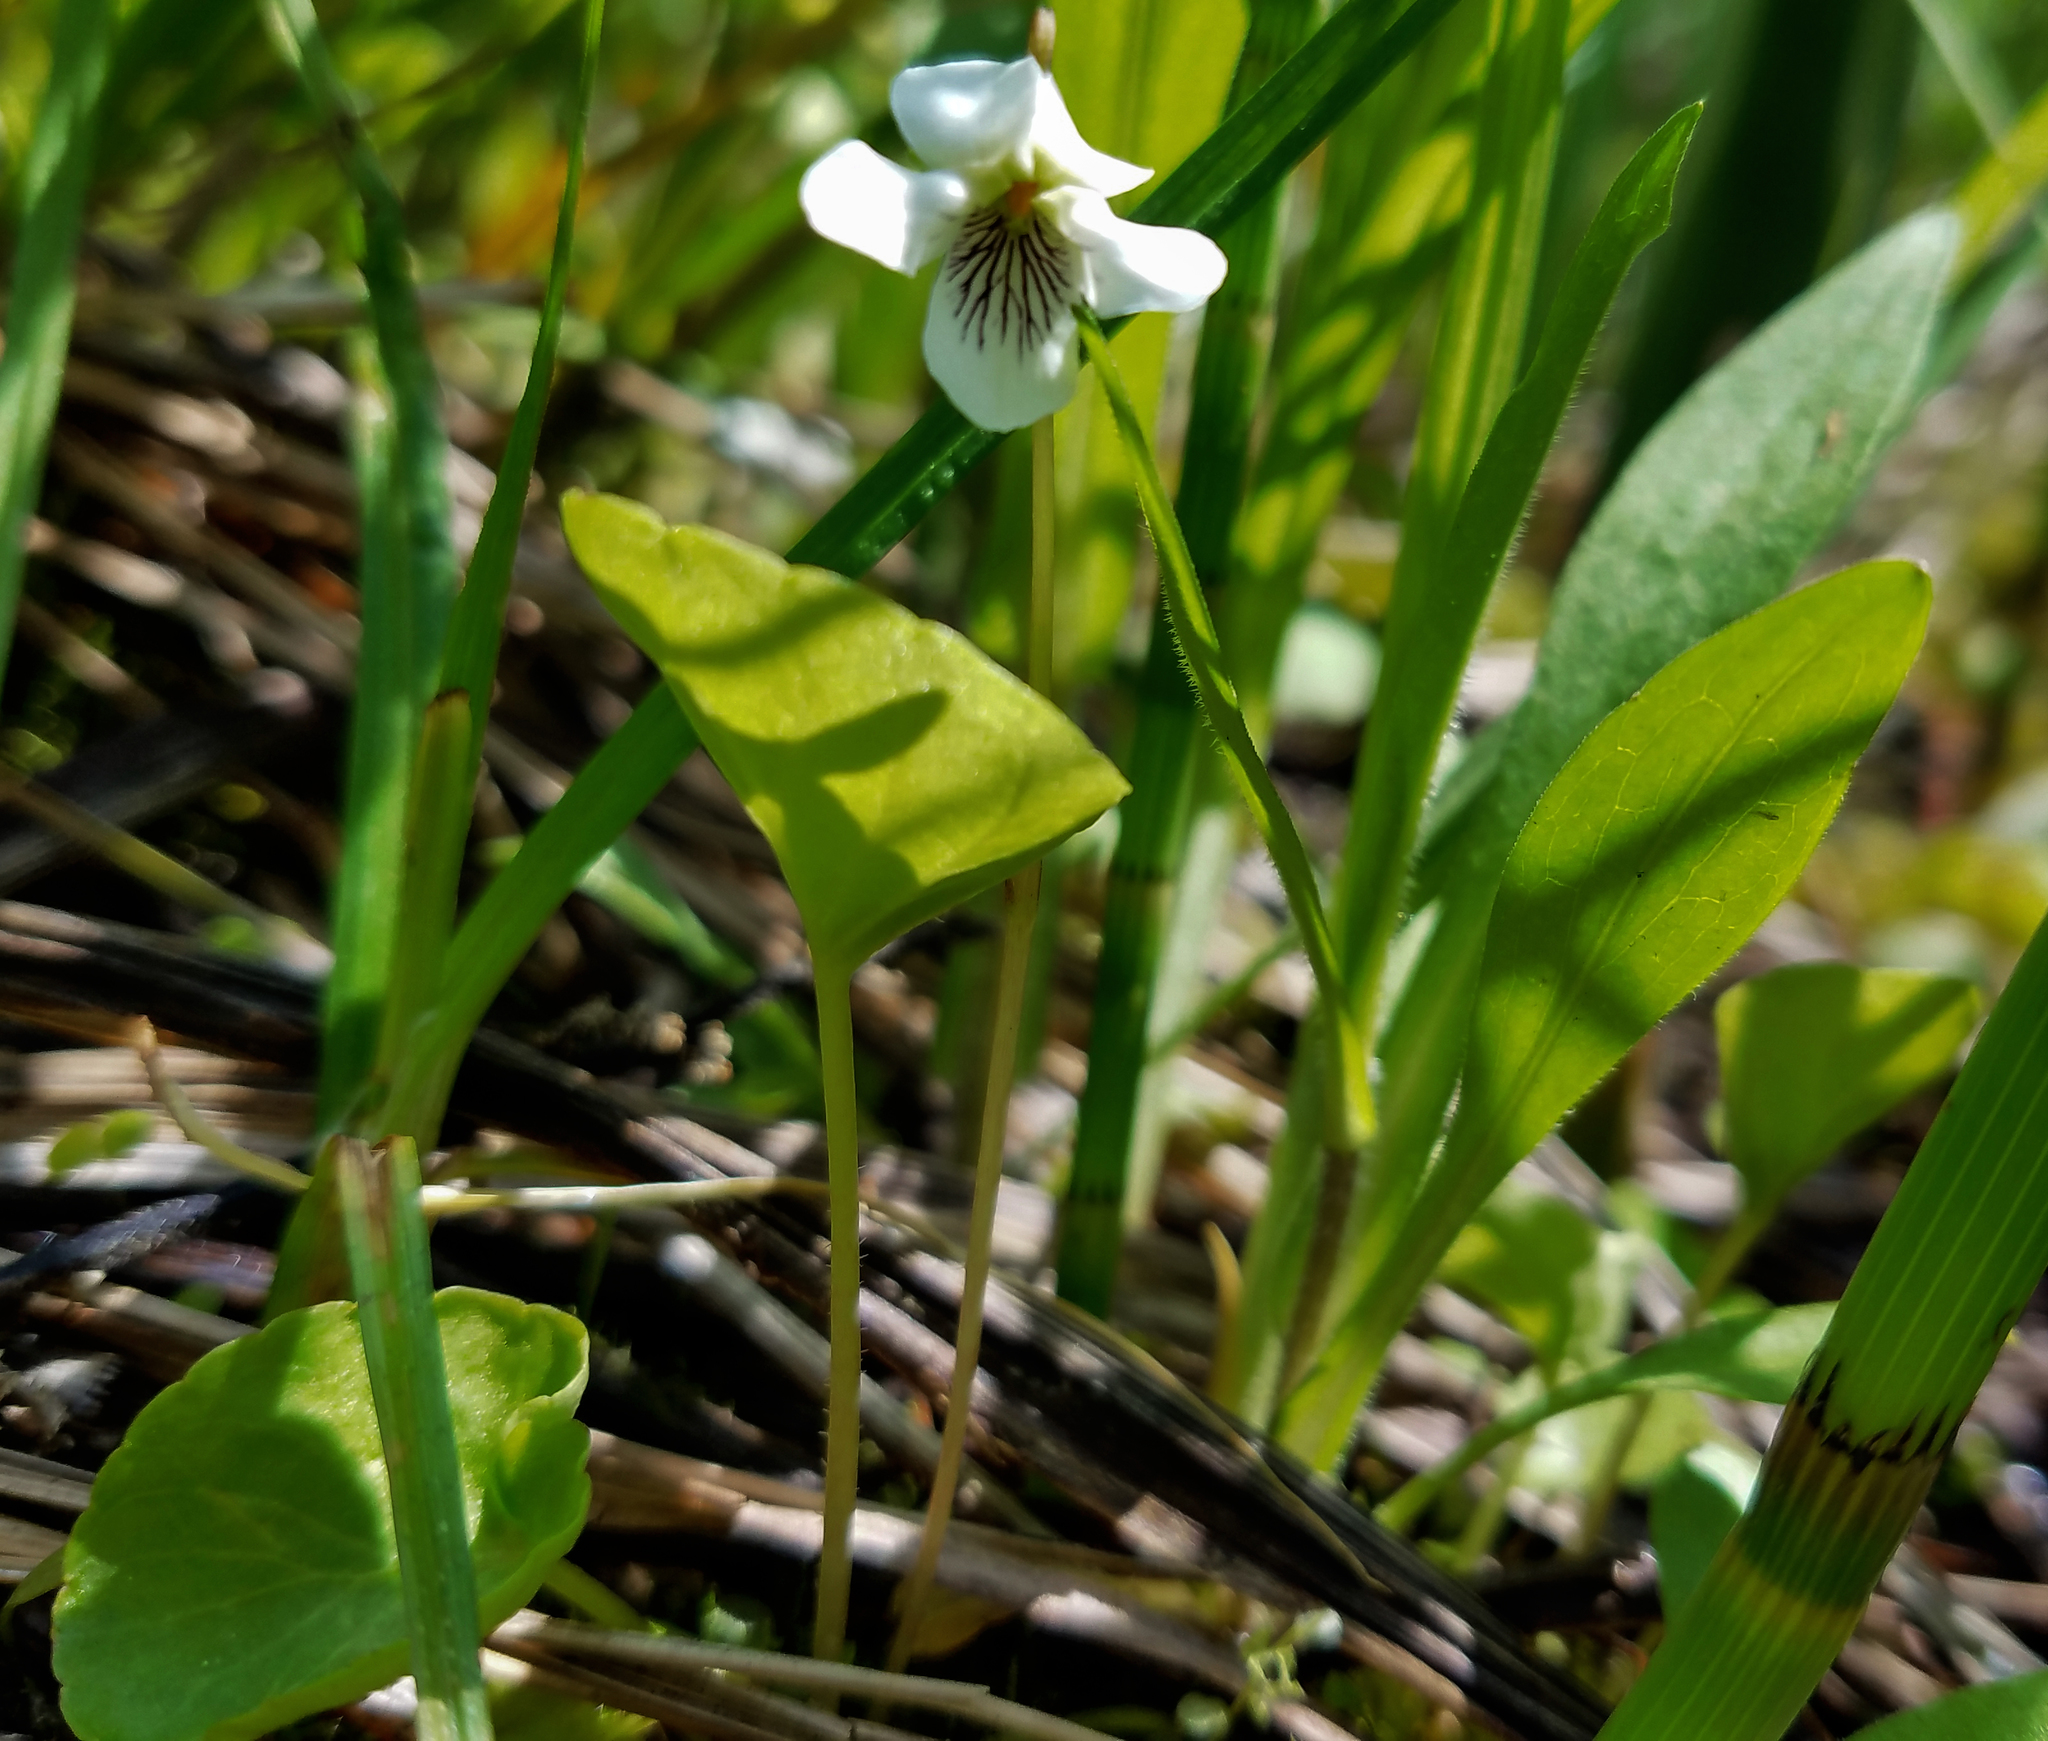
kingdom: Plantae
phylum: Tracheophyta
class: Magnoliopsida
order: Malpighiales
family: Violaceae
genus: Viola
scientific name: Viola blanda
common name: Sweet white violet
